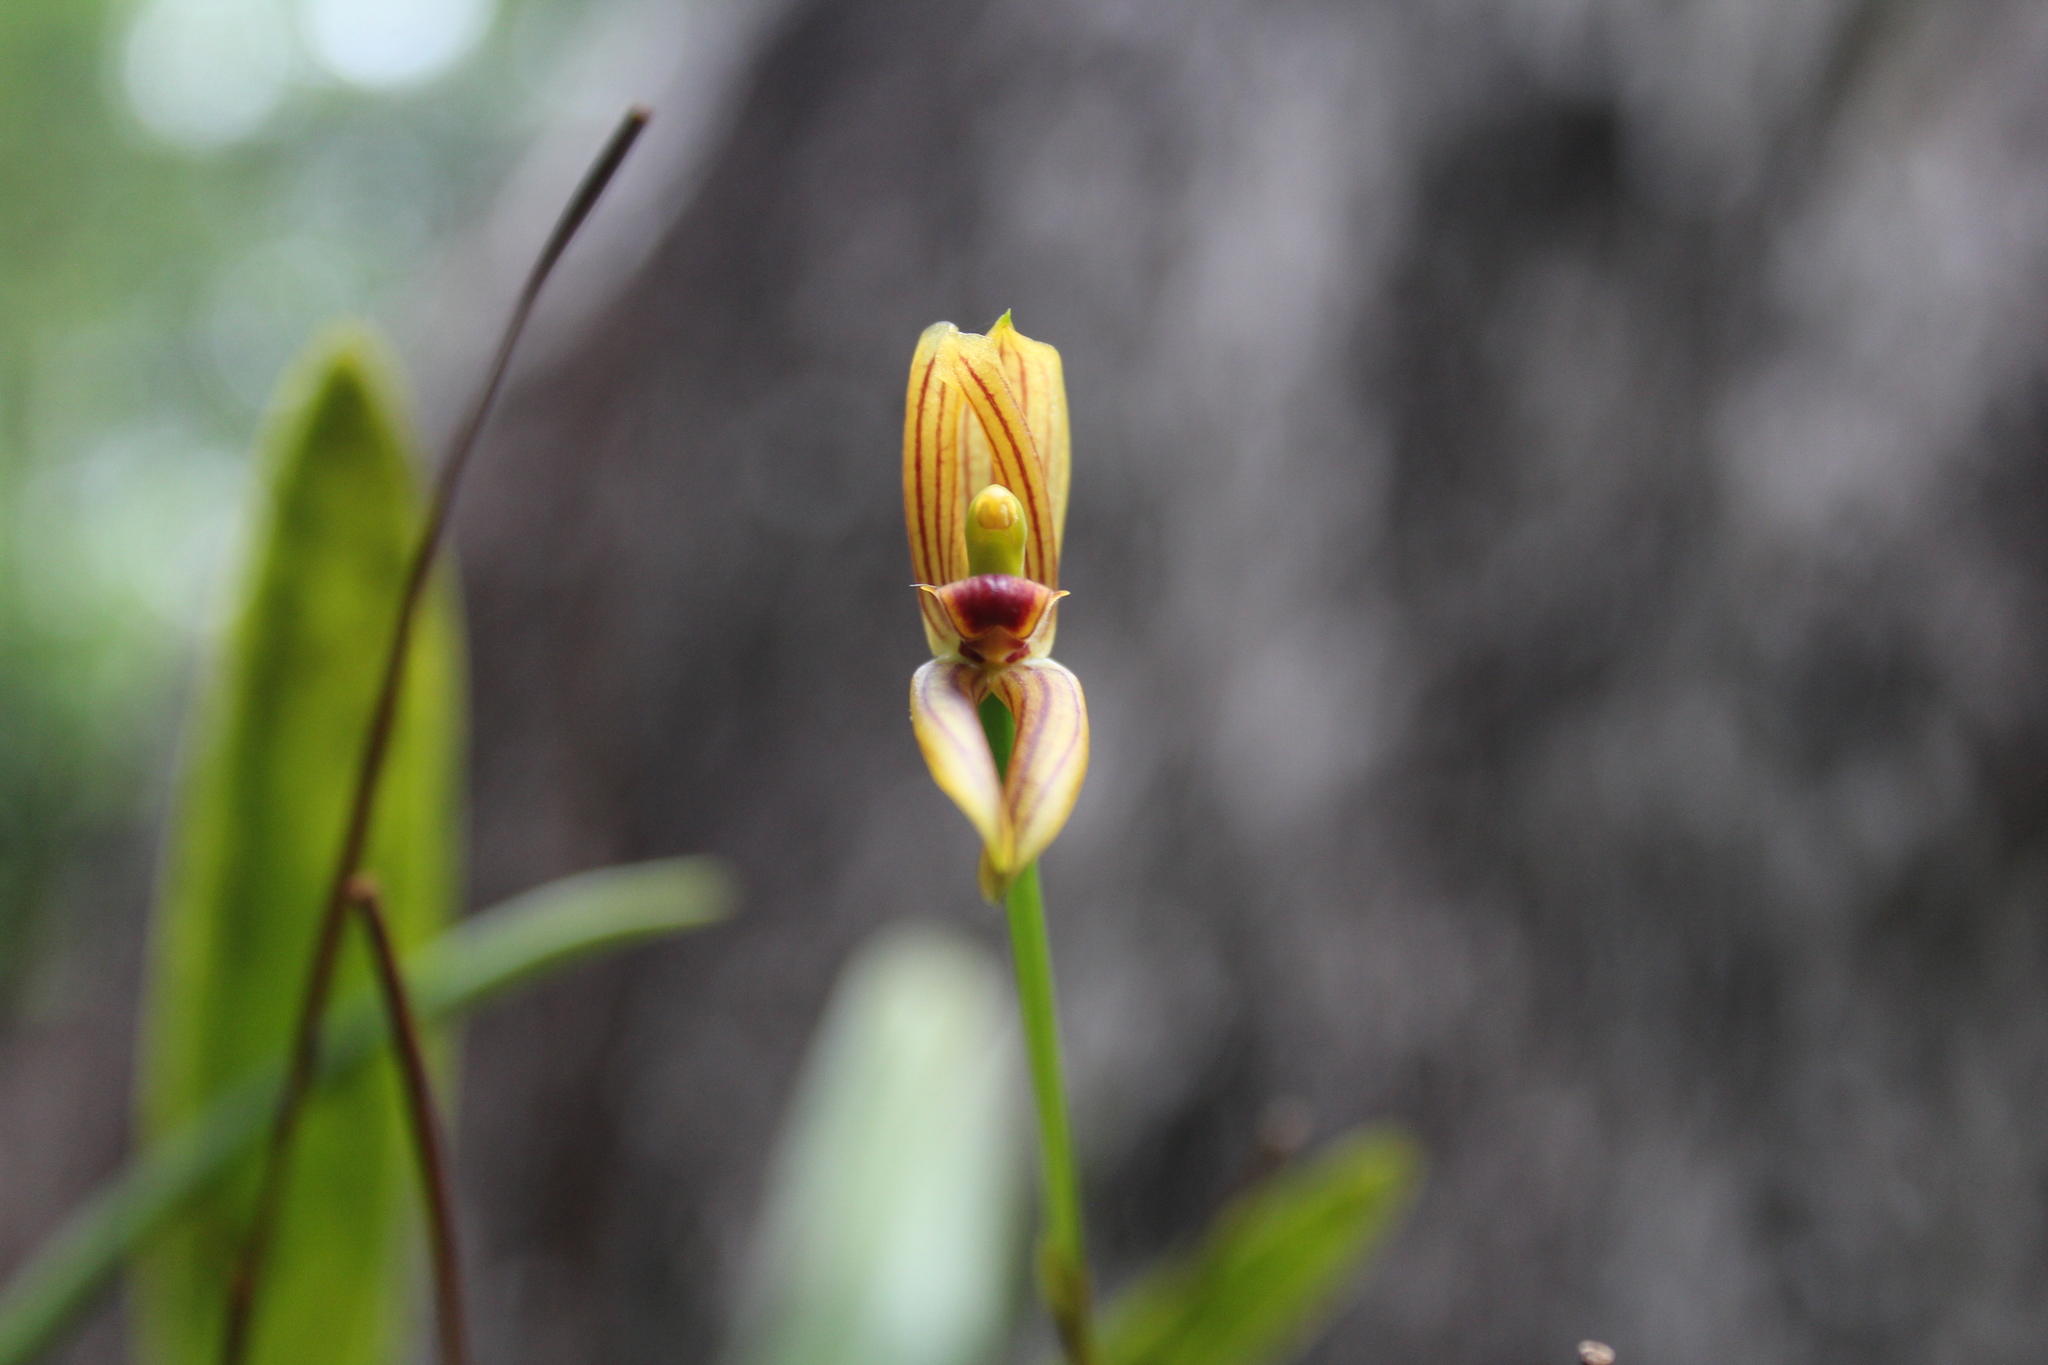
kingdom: Plantae
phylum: Tracheophyta
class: Liliopsida
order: Asparagales
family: Orchidaceae
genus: Maxillaria
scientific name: Maxillaria lineolata
